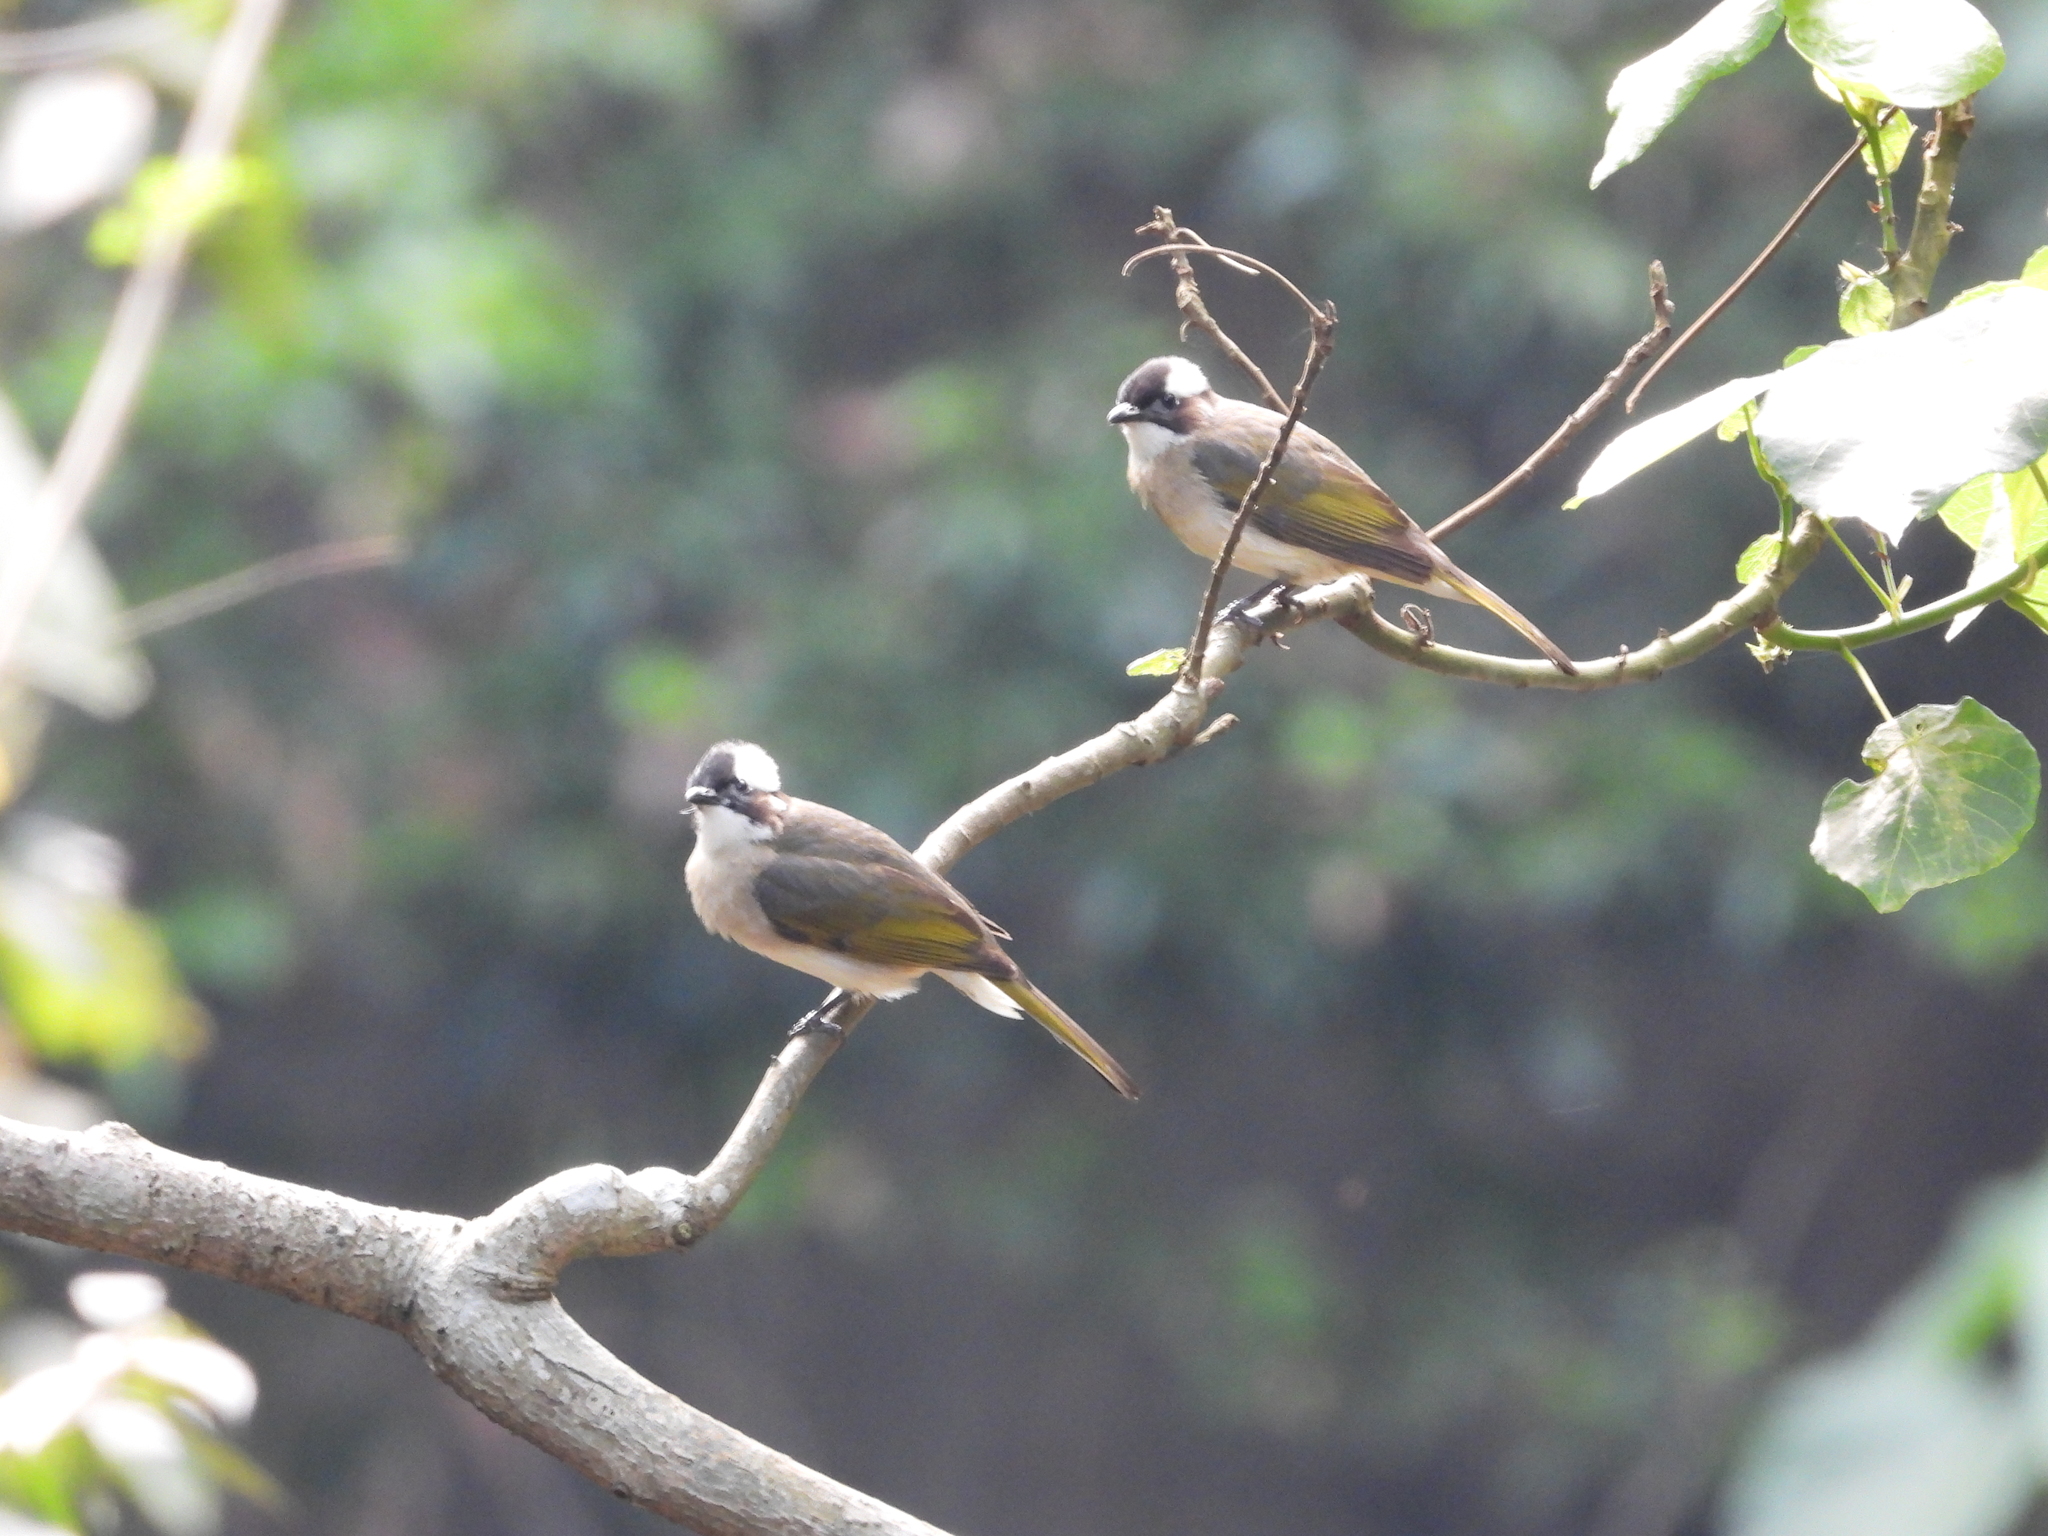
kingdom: Animalia
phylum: Chordata
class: Aves
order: Passeriformes
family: Pycnonotidae
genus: Pycnonotus
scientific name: Pycnonotus sinensis
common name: Light-vented bulbul
